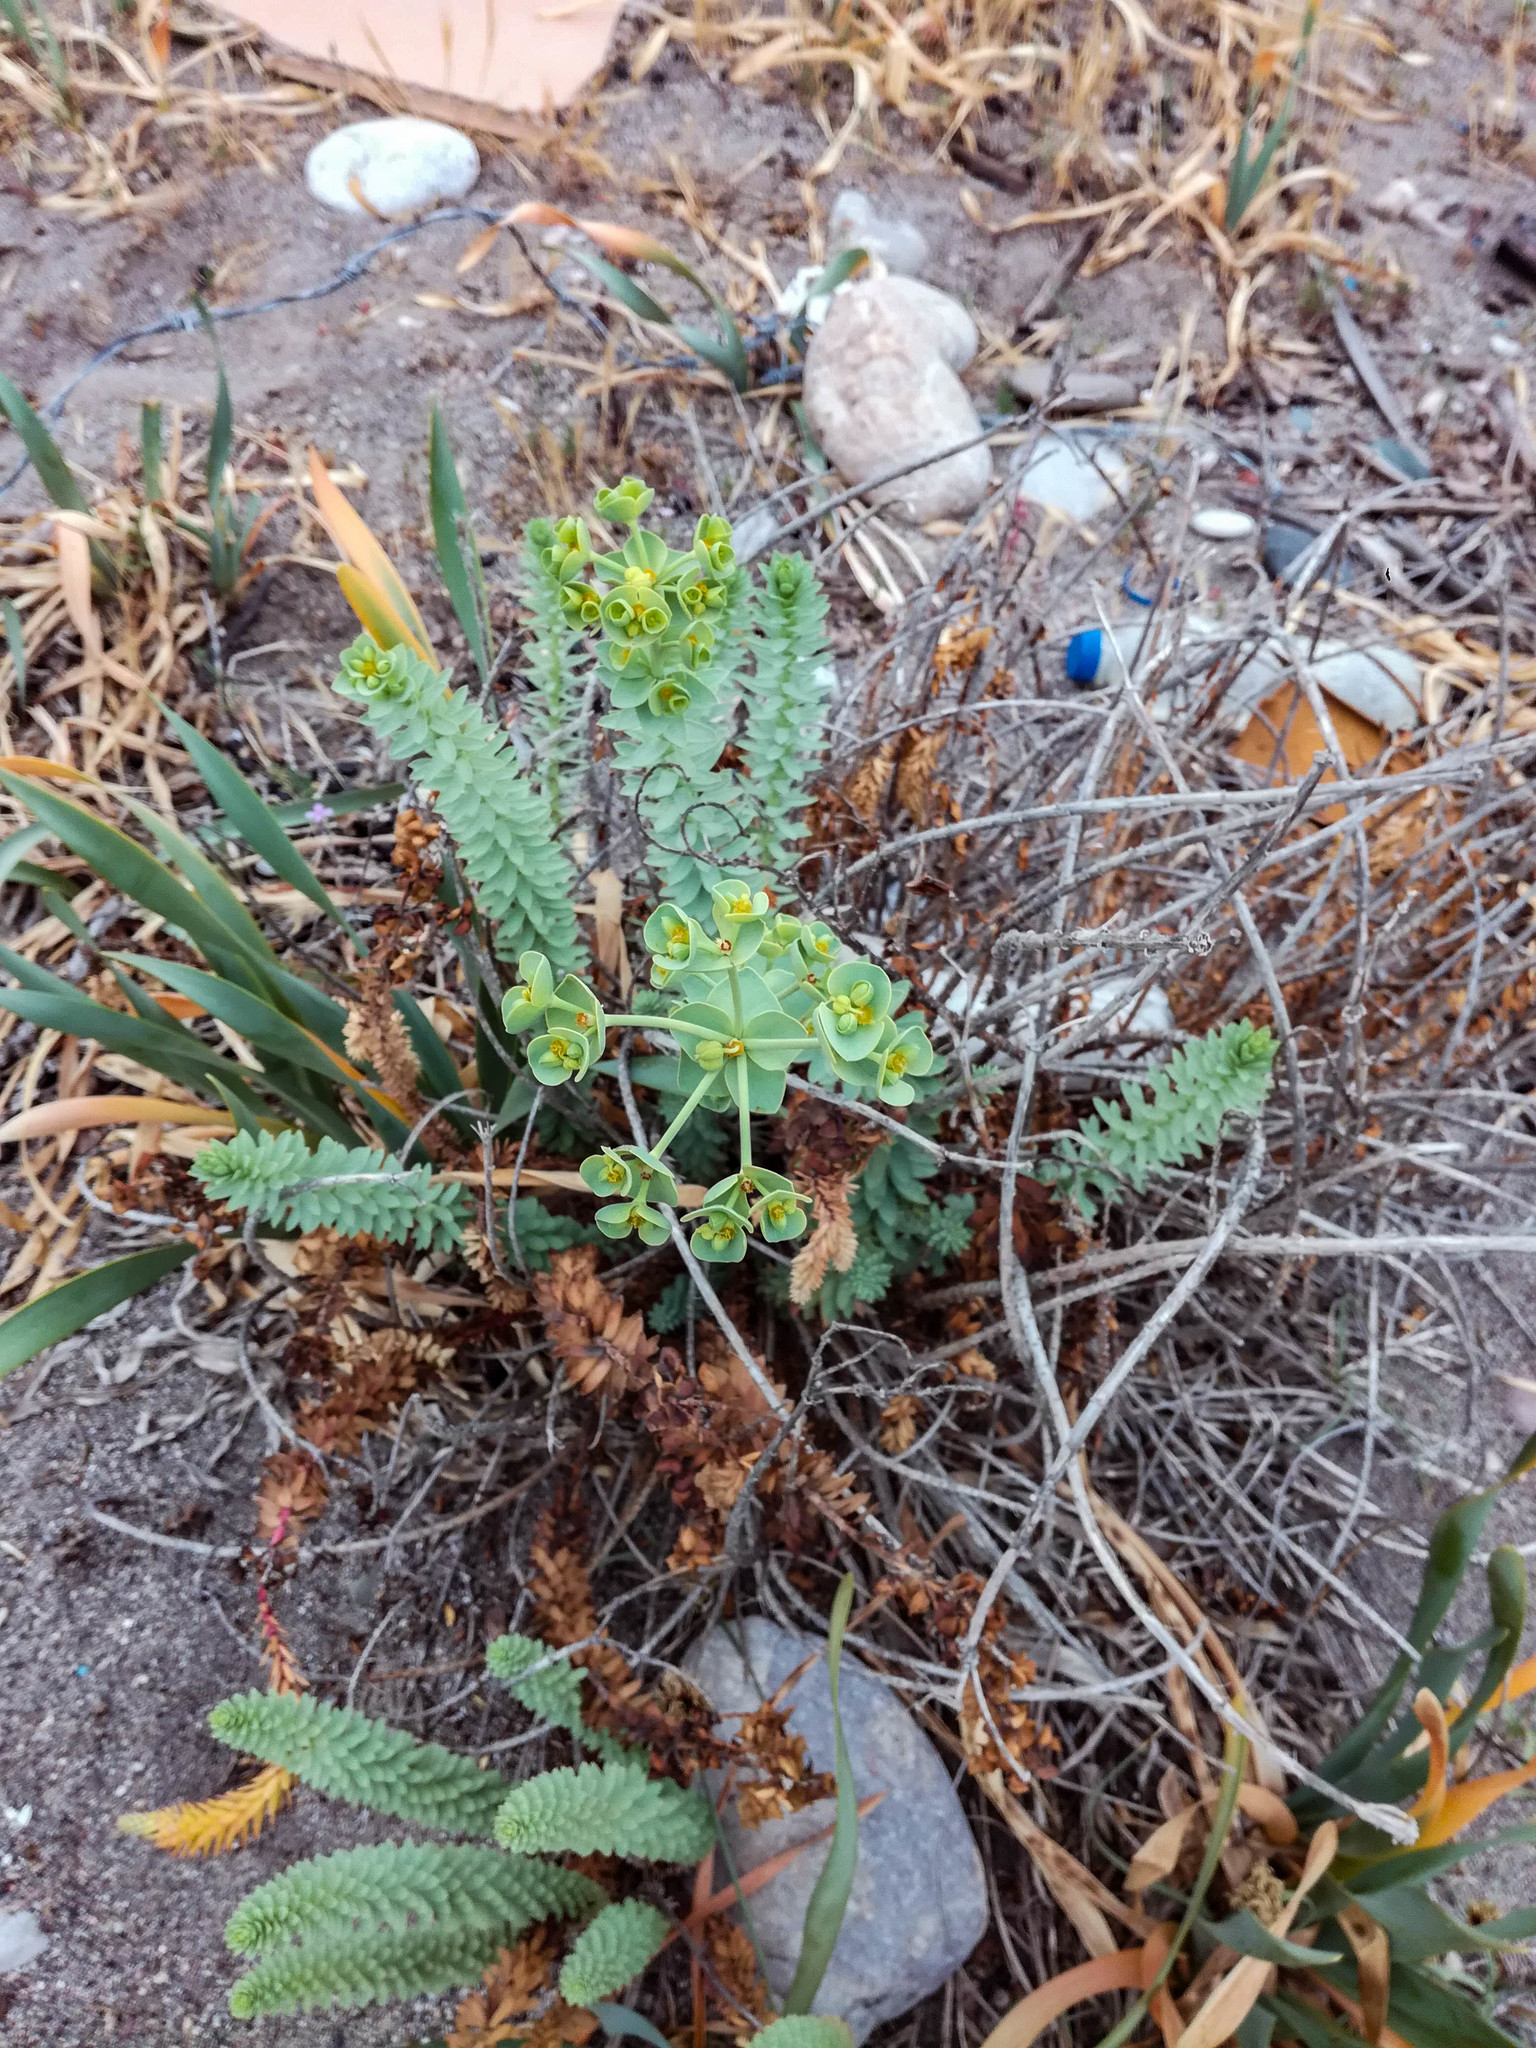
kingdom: Plantae
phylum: Tracheophyta
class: Magnoliopsida
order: Malpighiales
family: Euphorbiaceae
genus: Euphorbia
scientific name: Euphorbia paralias
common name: Sea spurge
